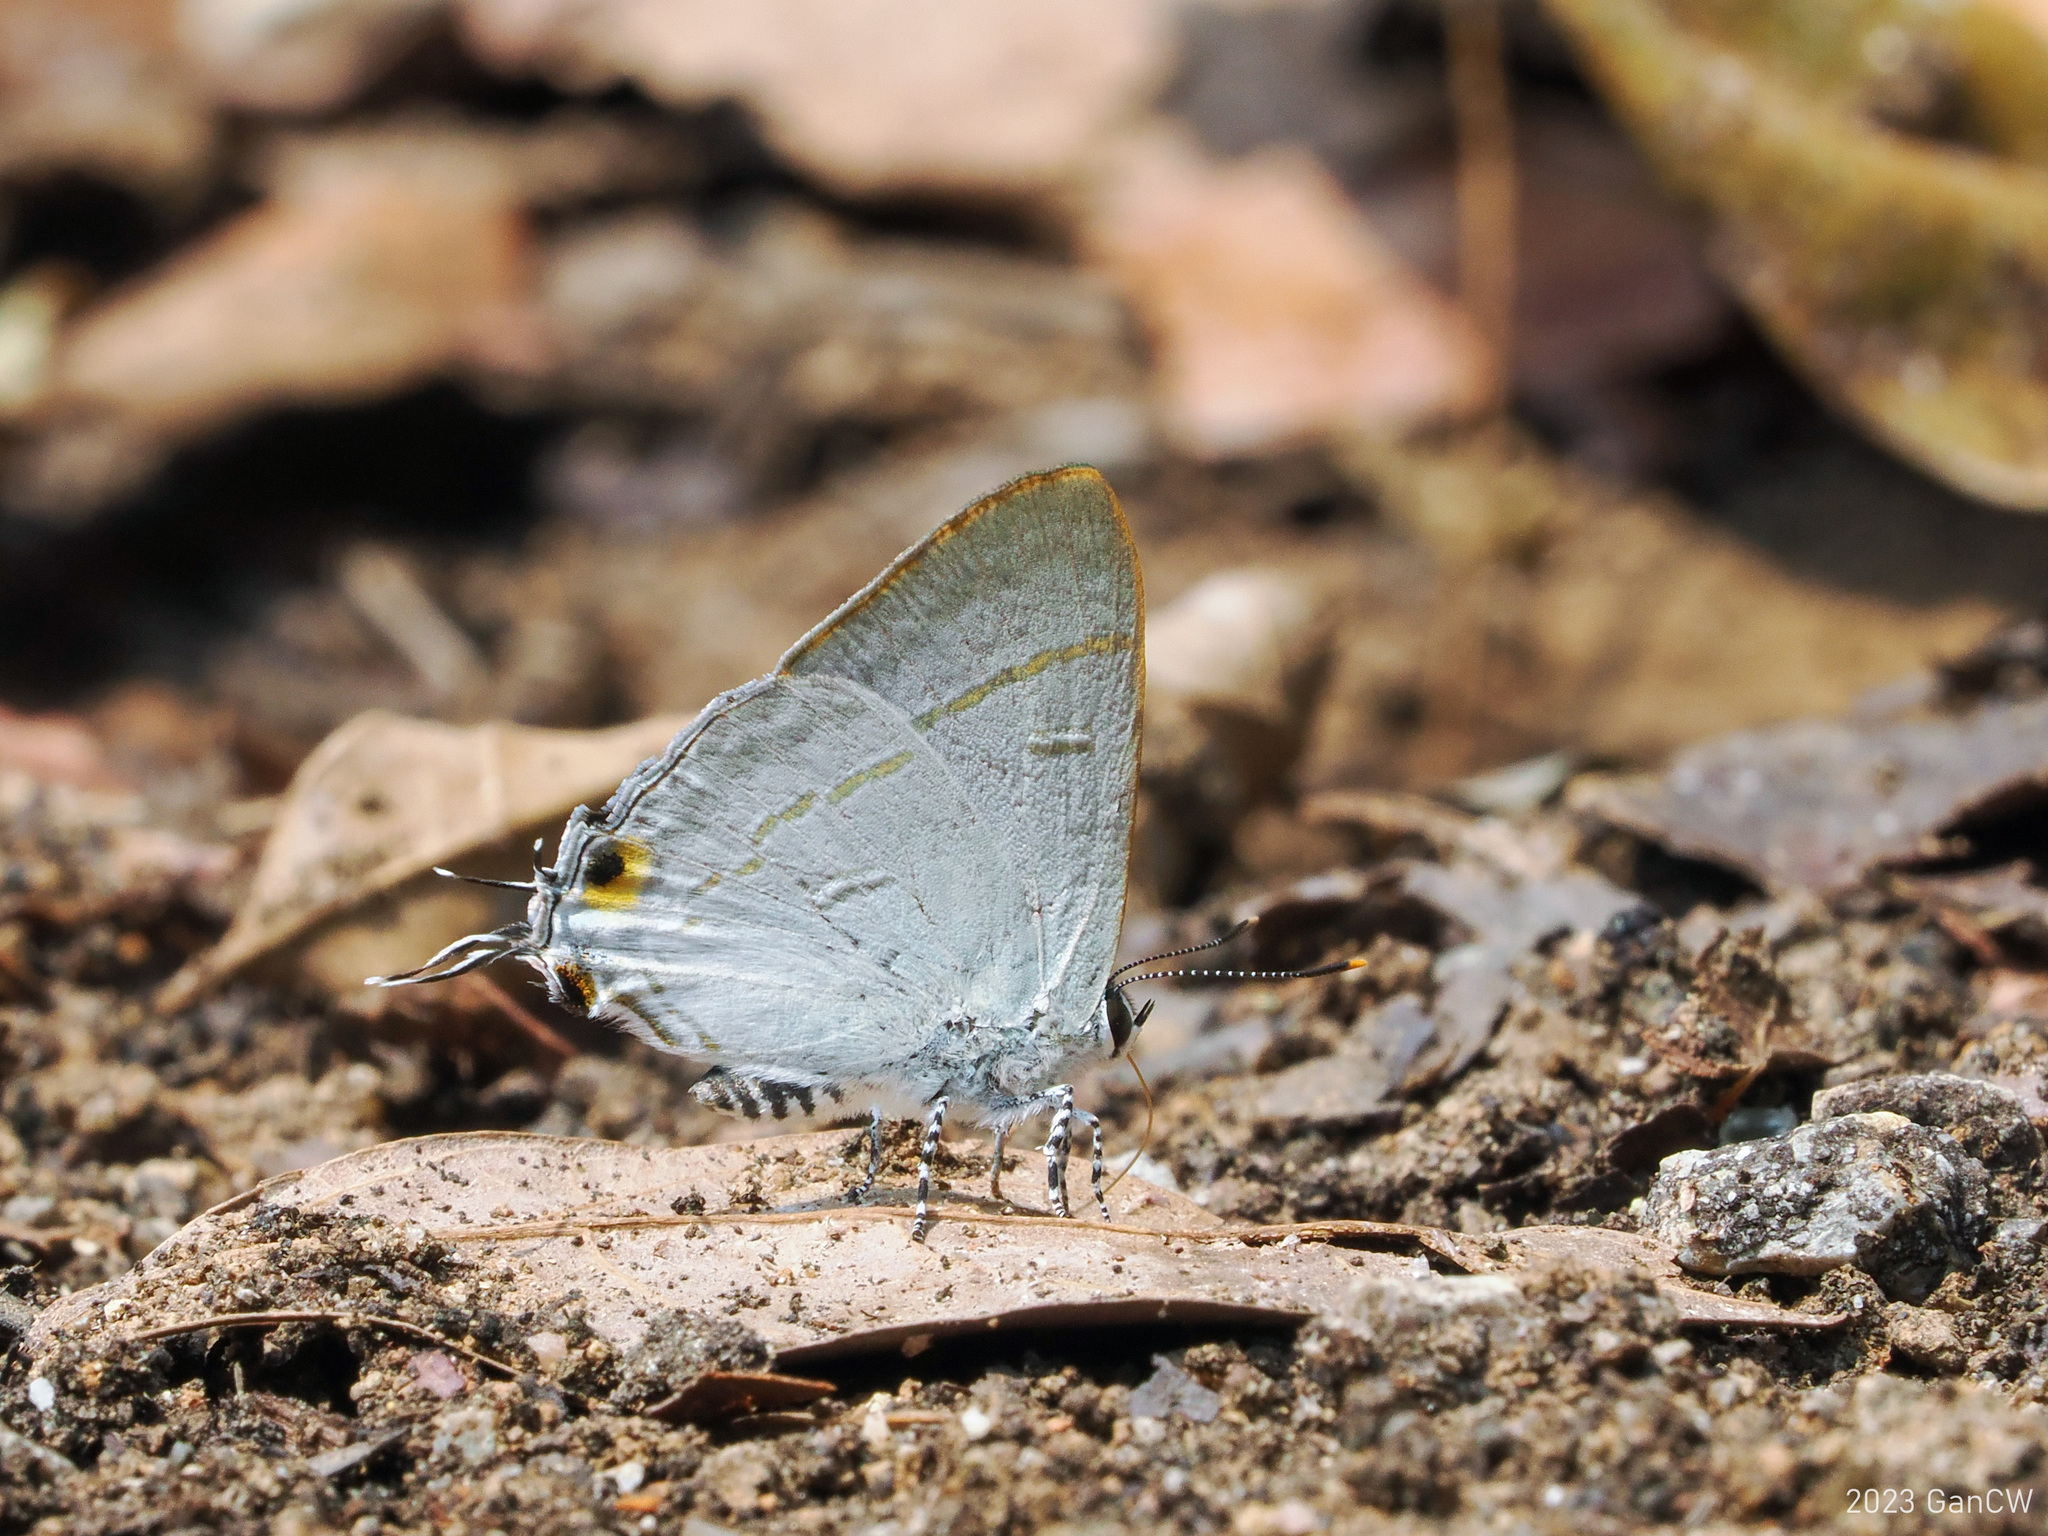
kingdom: Animalia
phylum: Arthropoda
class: Insecta
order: Lepidoptera
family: Lycaenidae
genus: Hypolycaena
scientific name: Hypolycaena erylus
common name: Common tit
